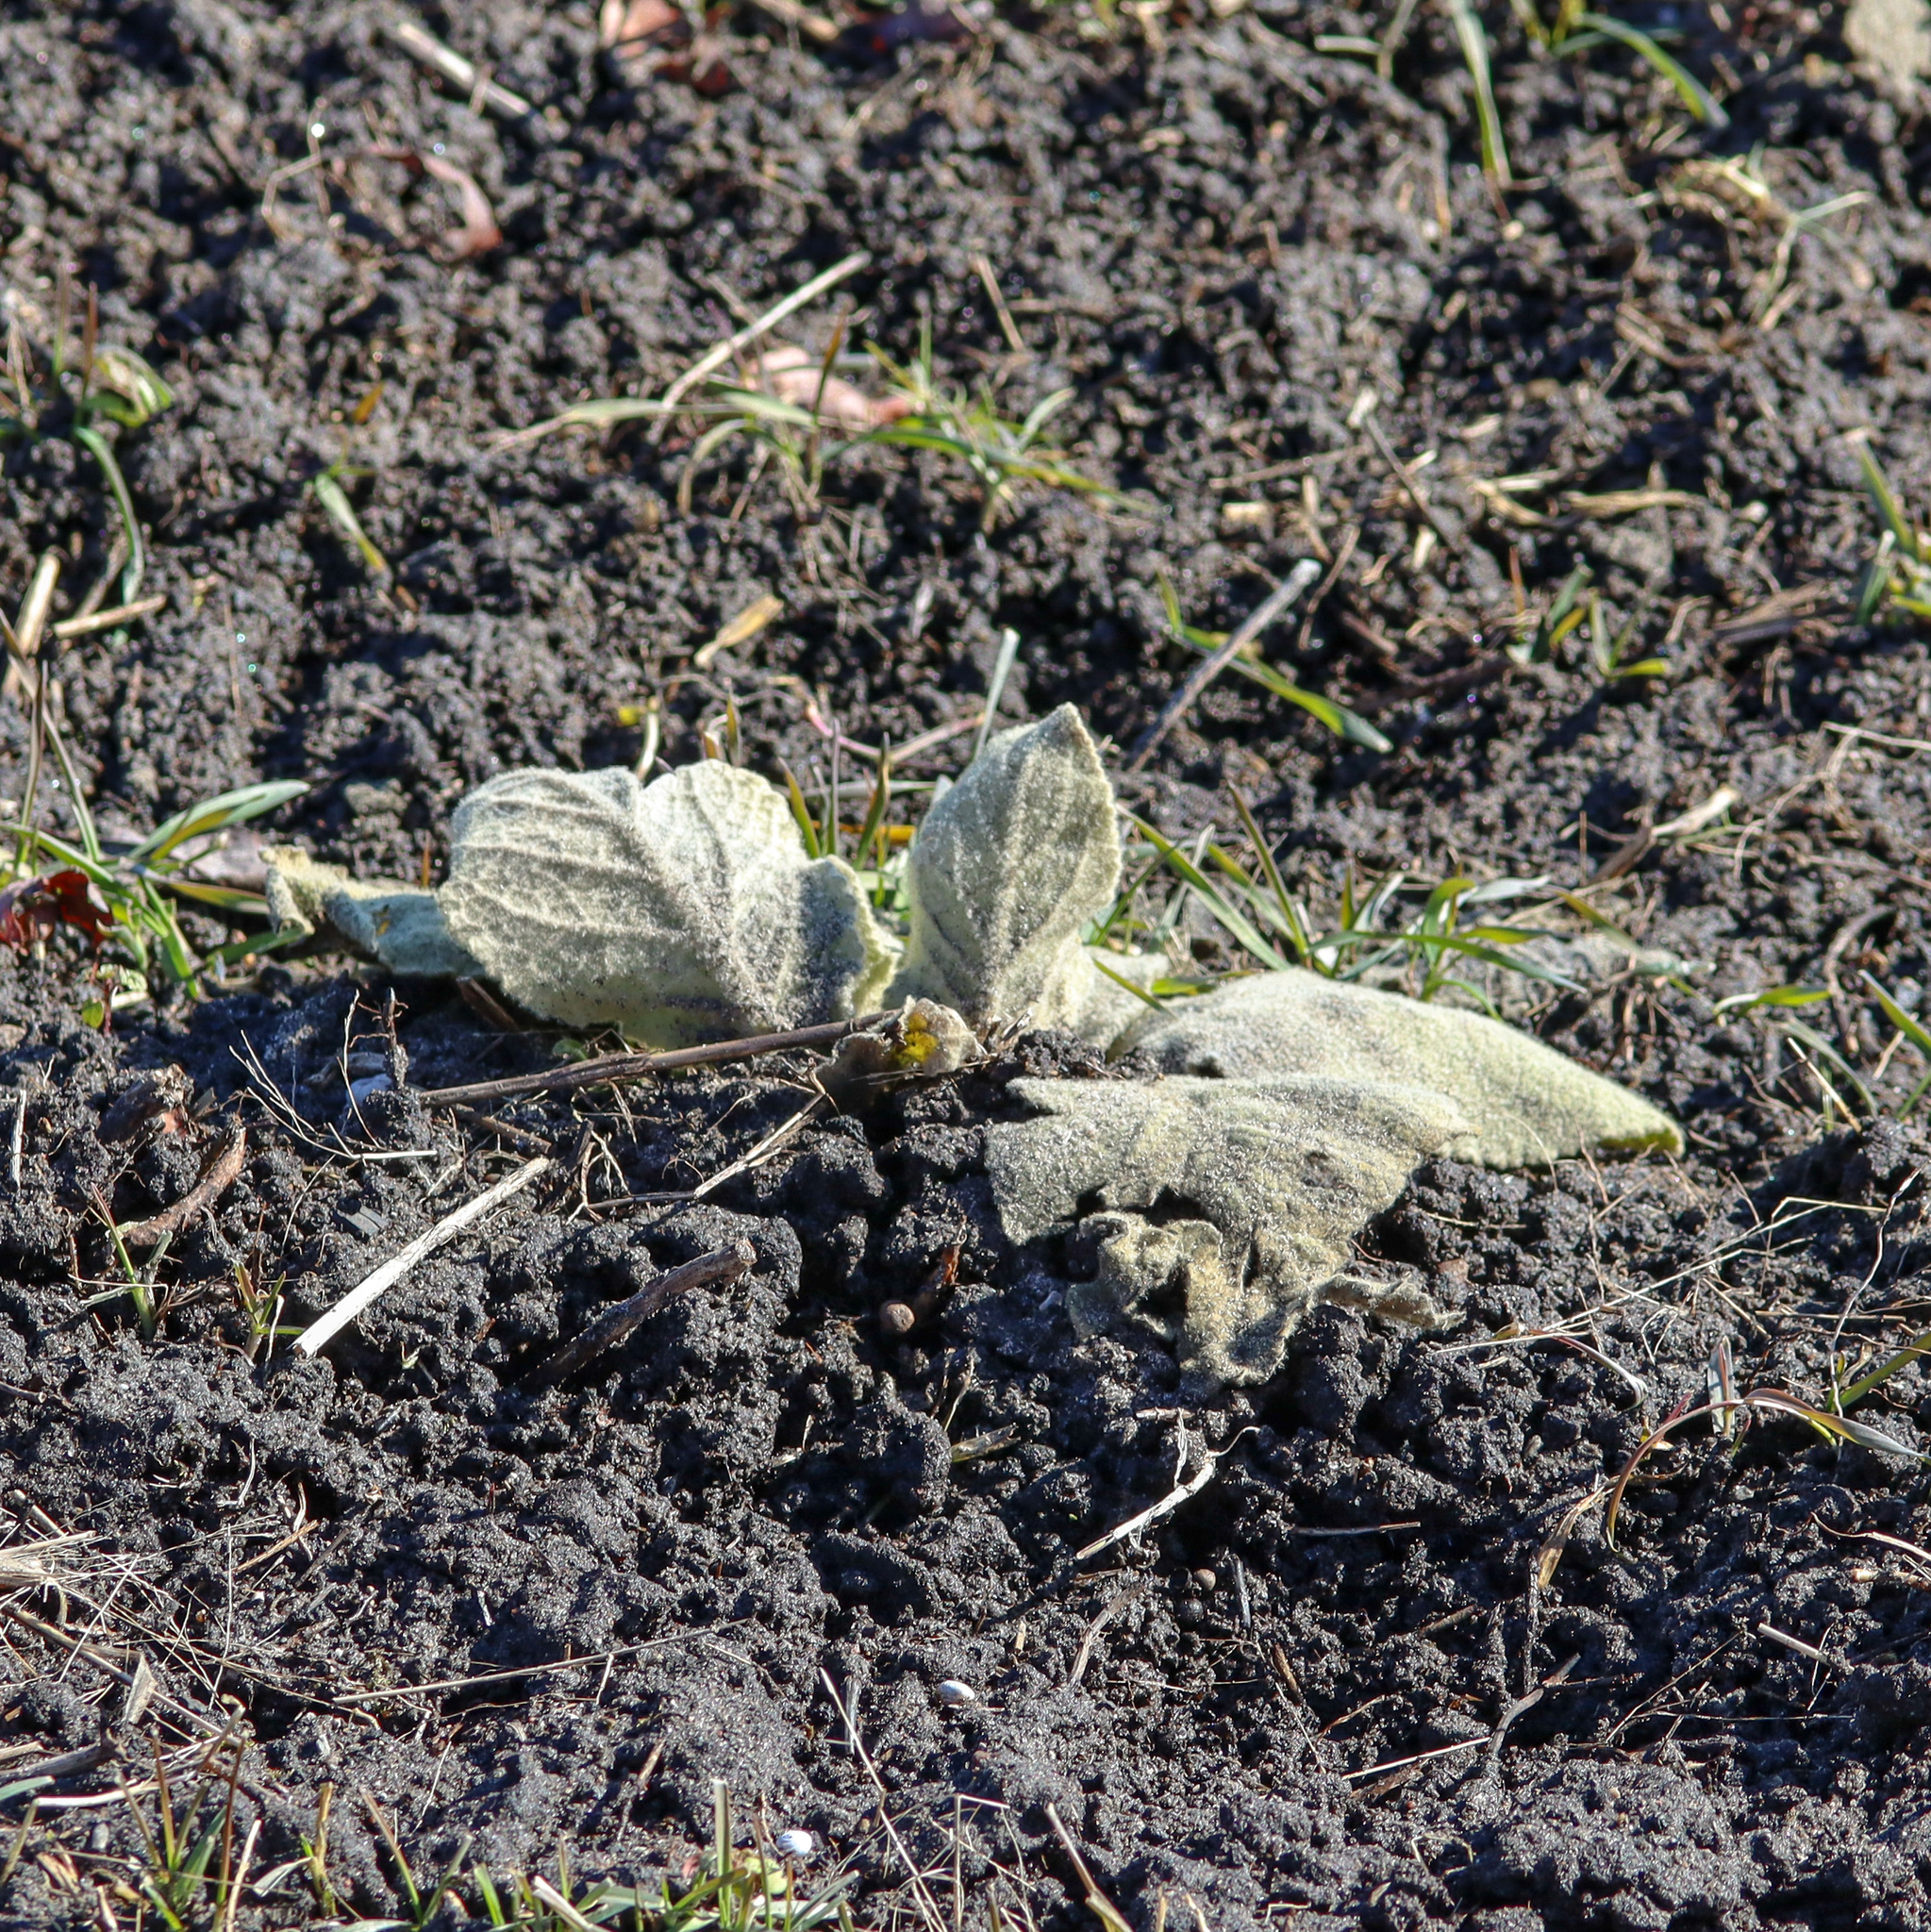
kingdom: Plantae
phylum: Tracheophyta
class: Magnoliopsida
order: Lamiales
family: Scrophulariaceae
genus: Verbascum
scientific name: Verbascum thapsus
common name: Common mullein
